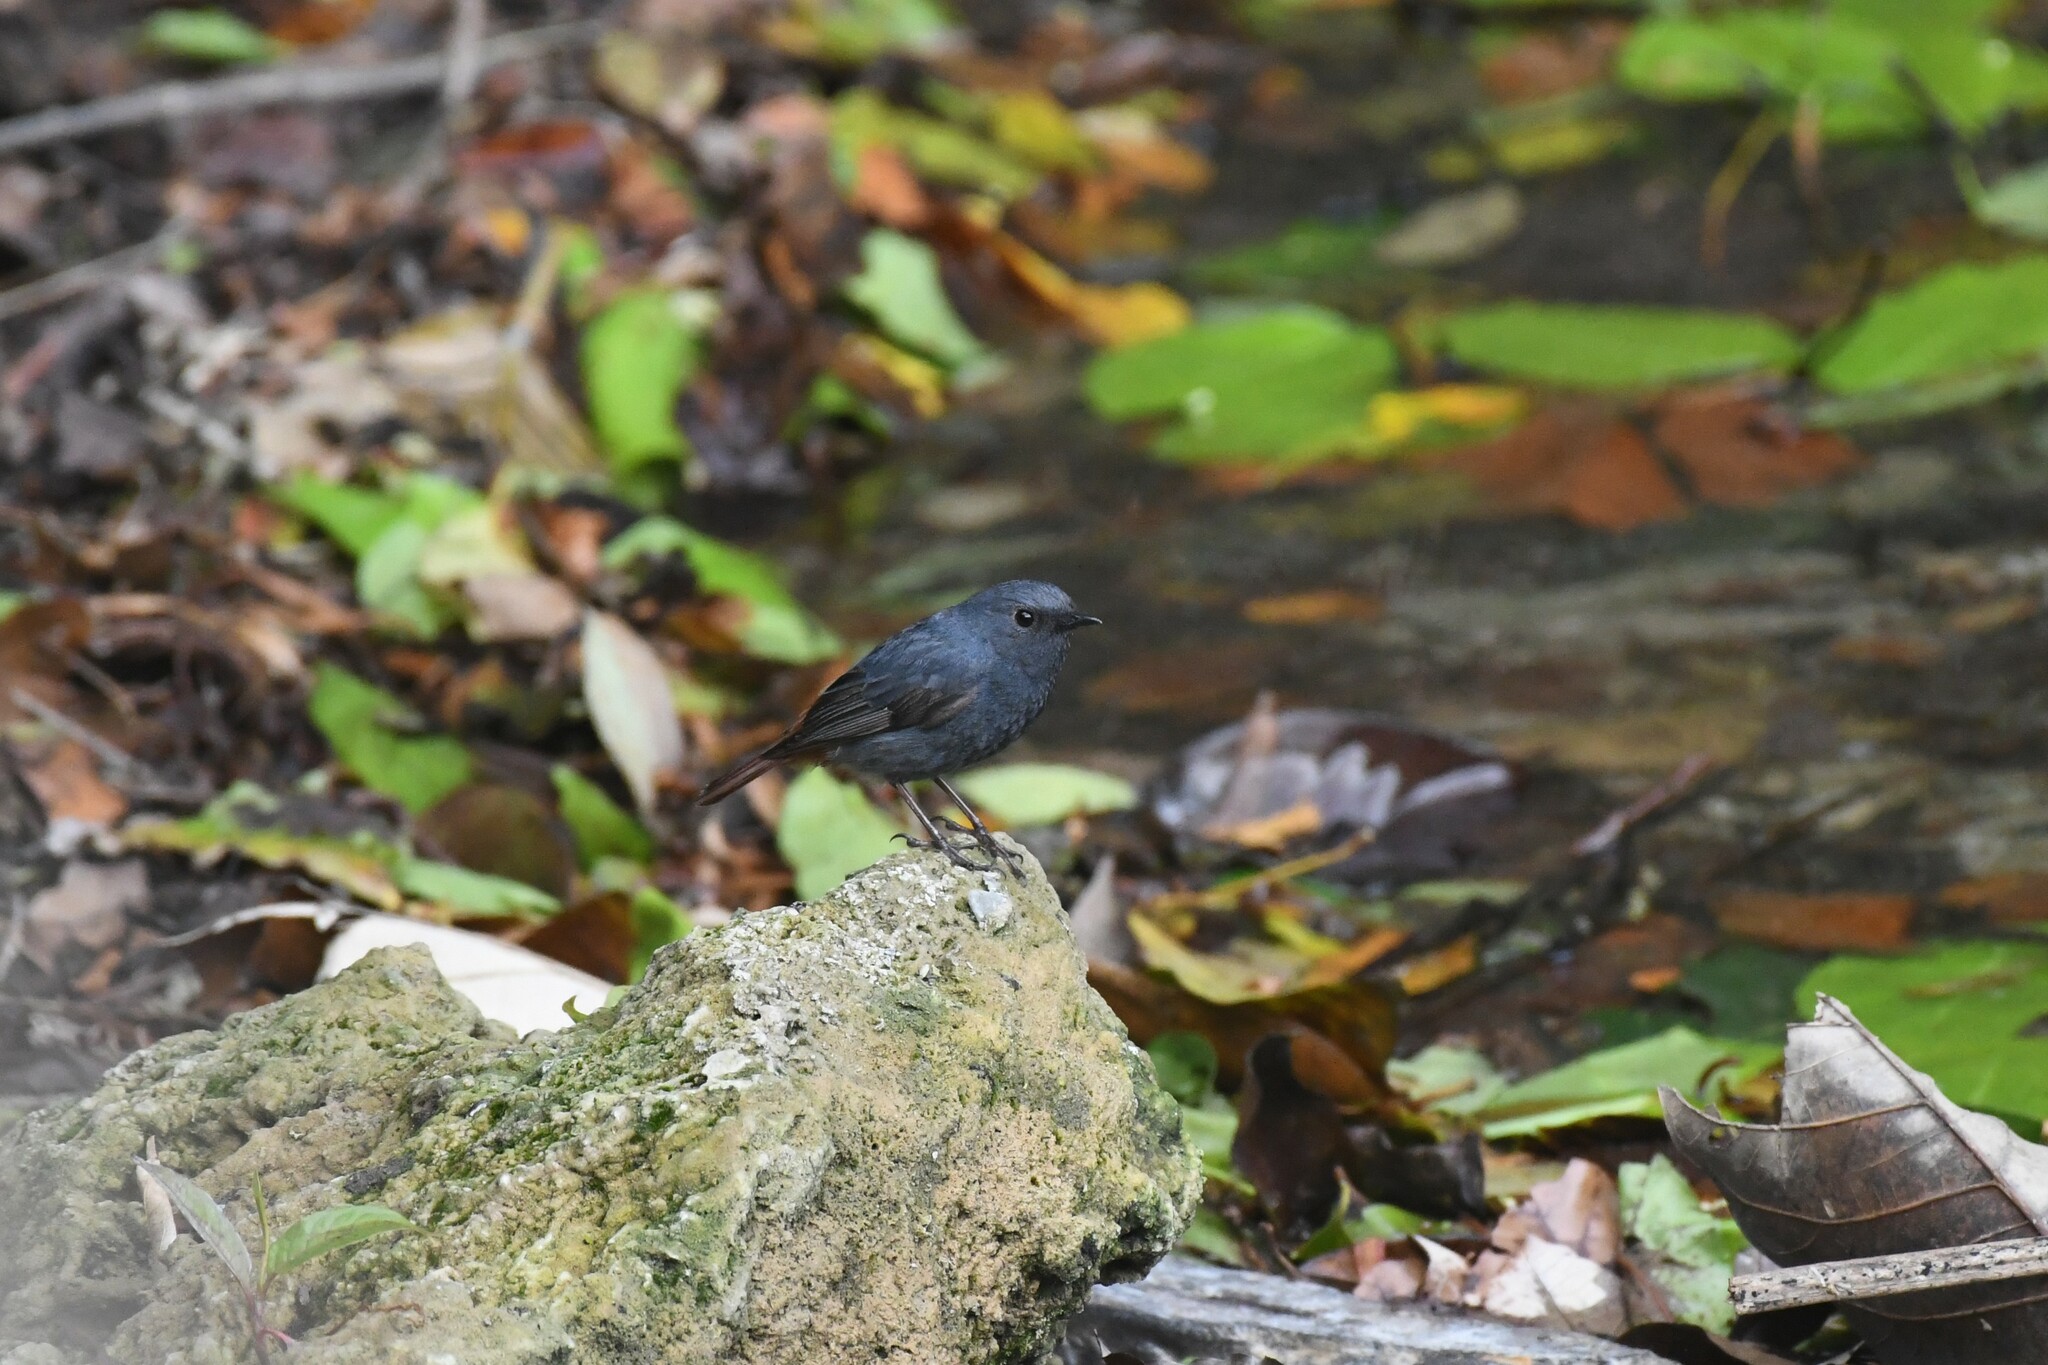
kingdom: Animalia
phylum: Chordata
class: Aves
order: Passeriformes
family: Muscicapidae
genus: Phoenicurus
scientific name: Phoenicurus fuliginosus
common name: Plumbeous water redstart
